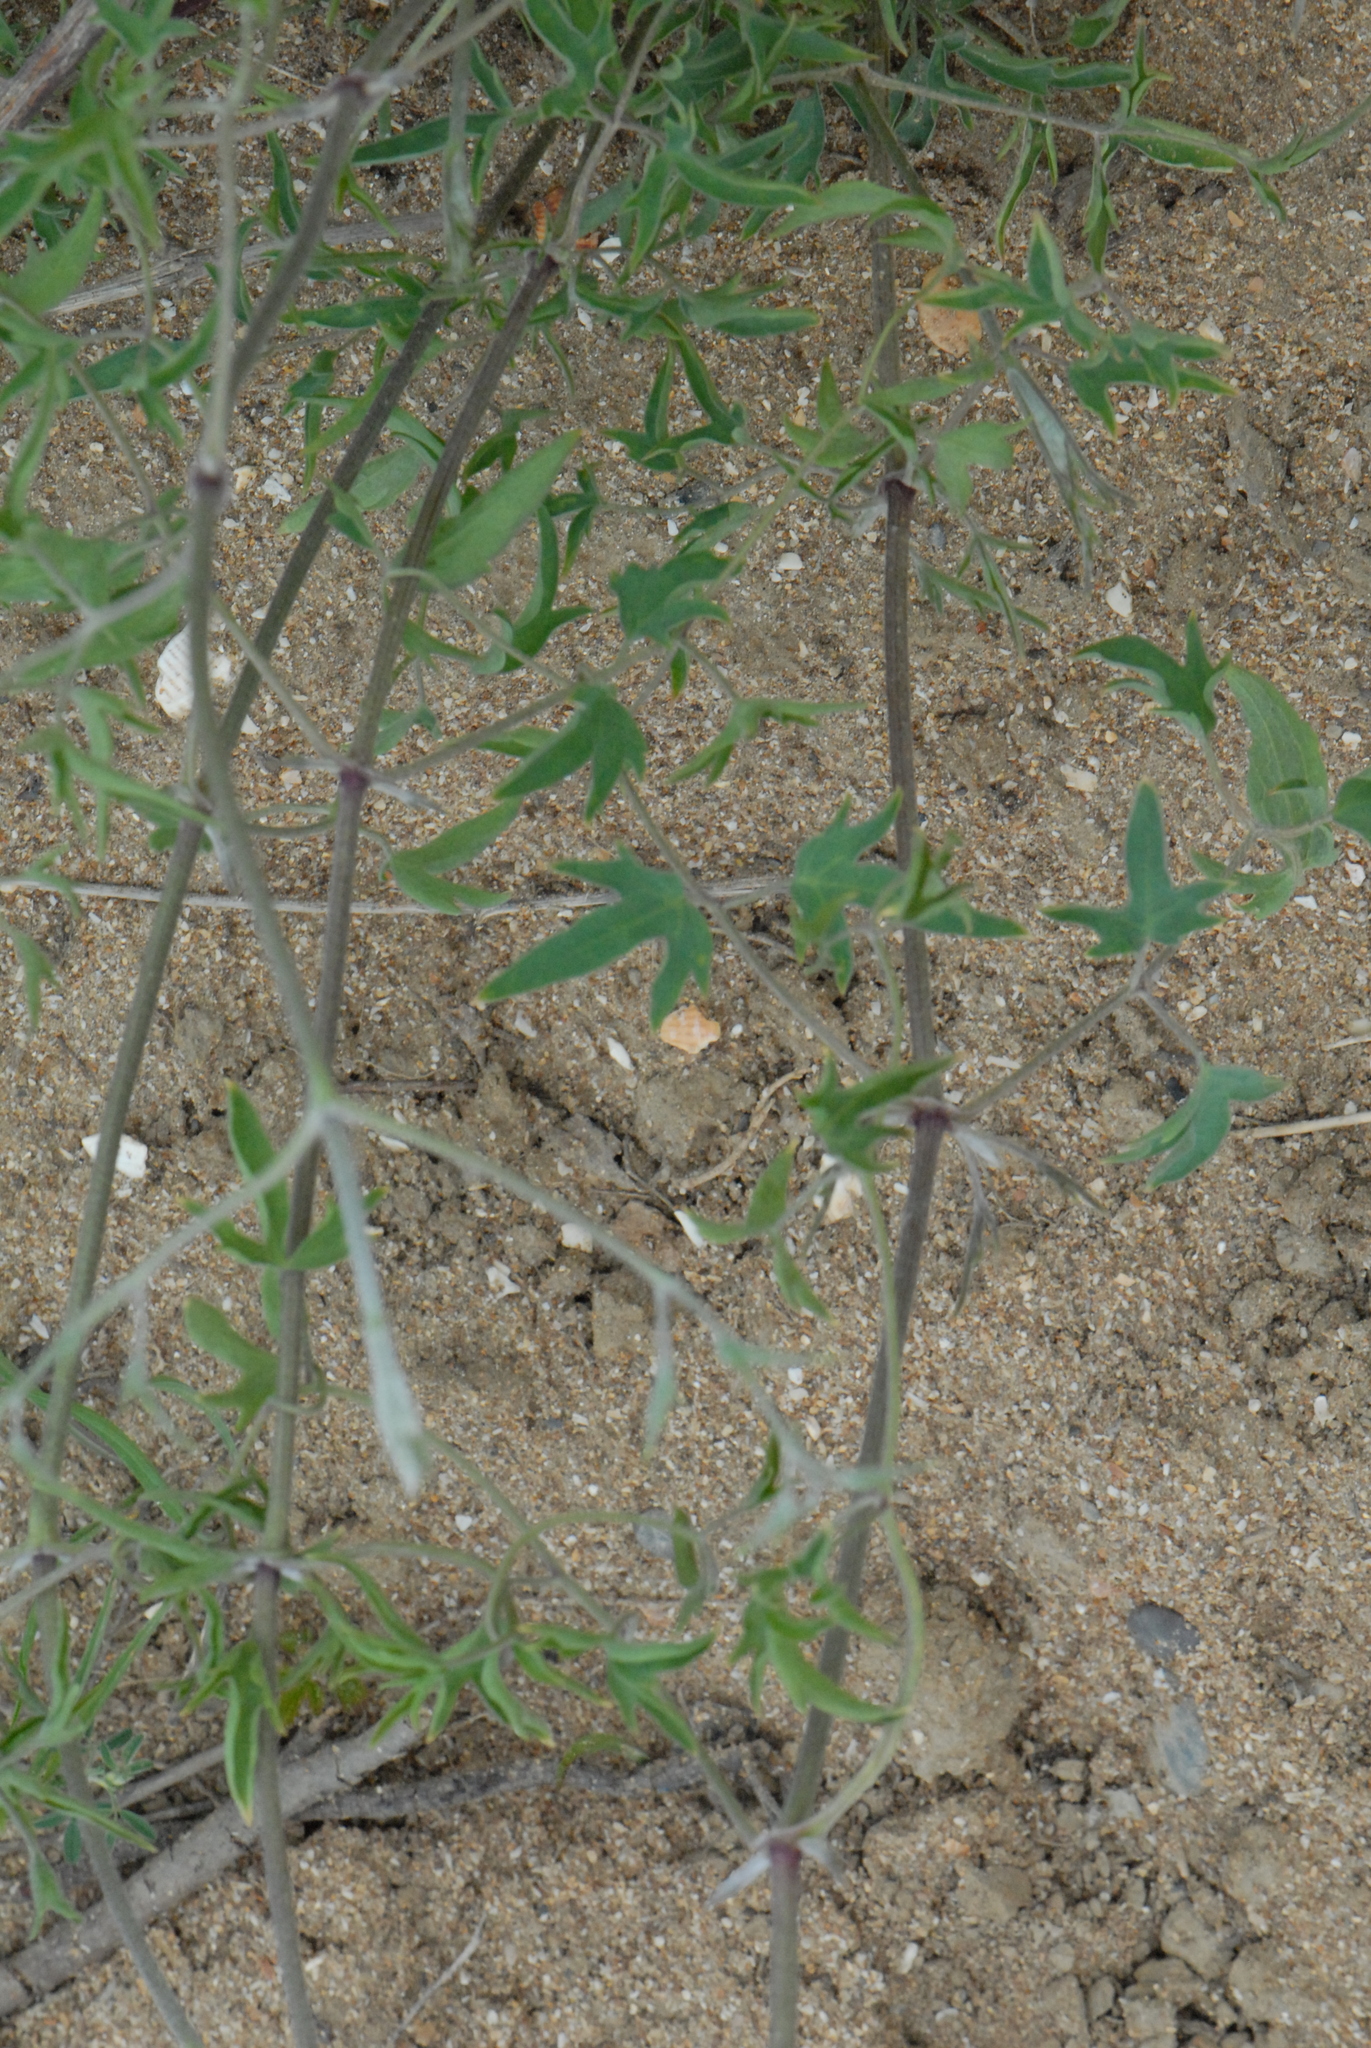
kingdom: Plantae
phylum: Tracheophyta
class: Magnoliopsida
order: Ranunculales
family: Ranunculaceae
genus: Clematis
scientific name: Clematis orientalis
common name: Oriental virgin's-bower
